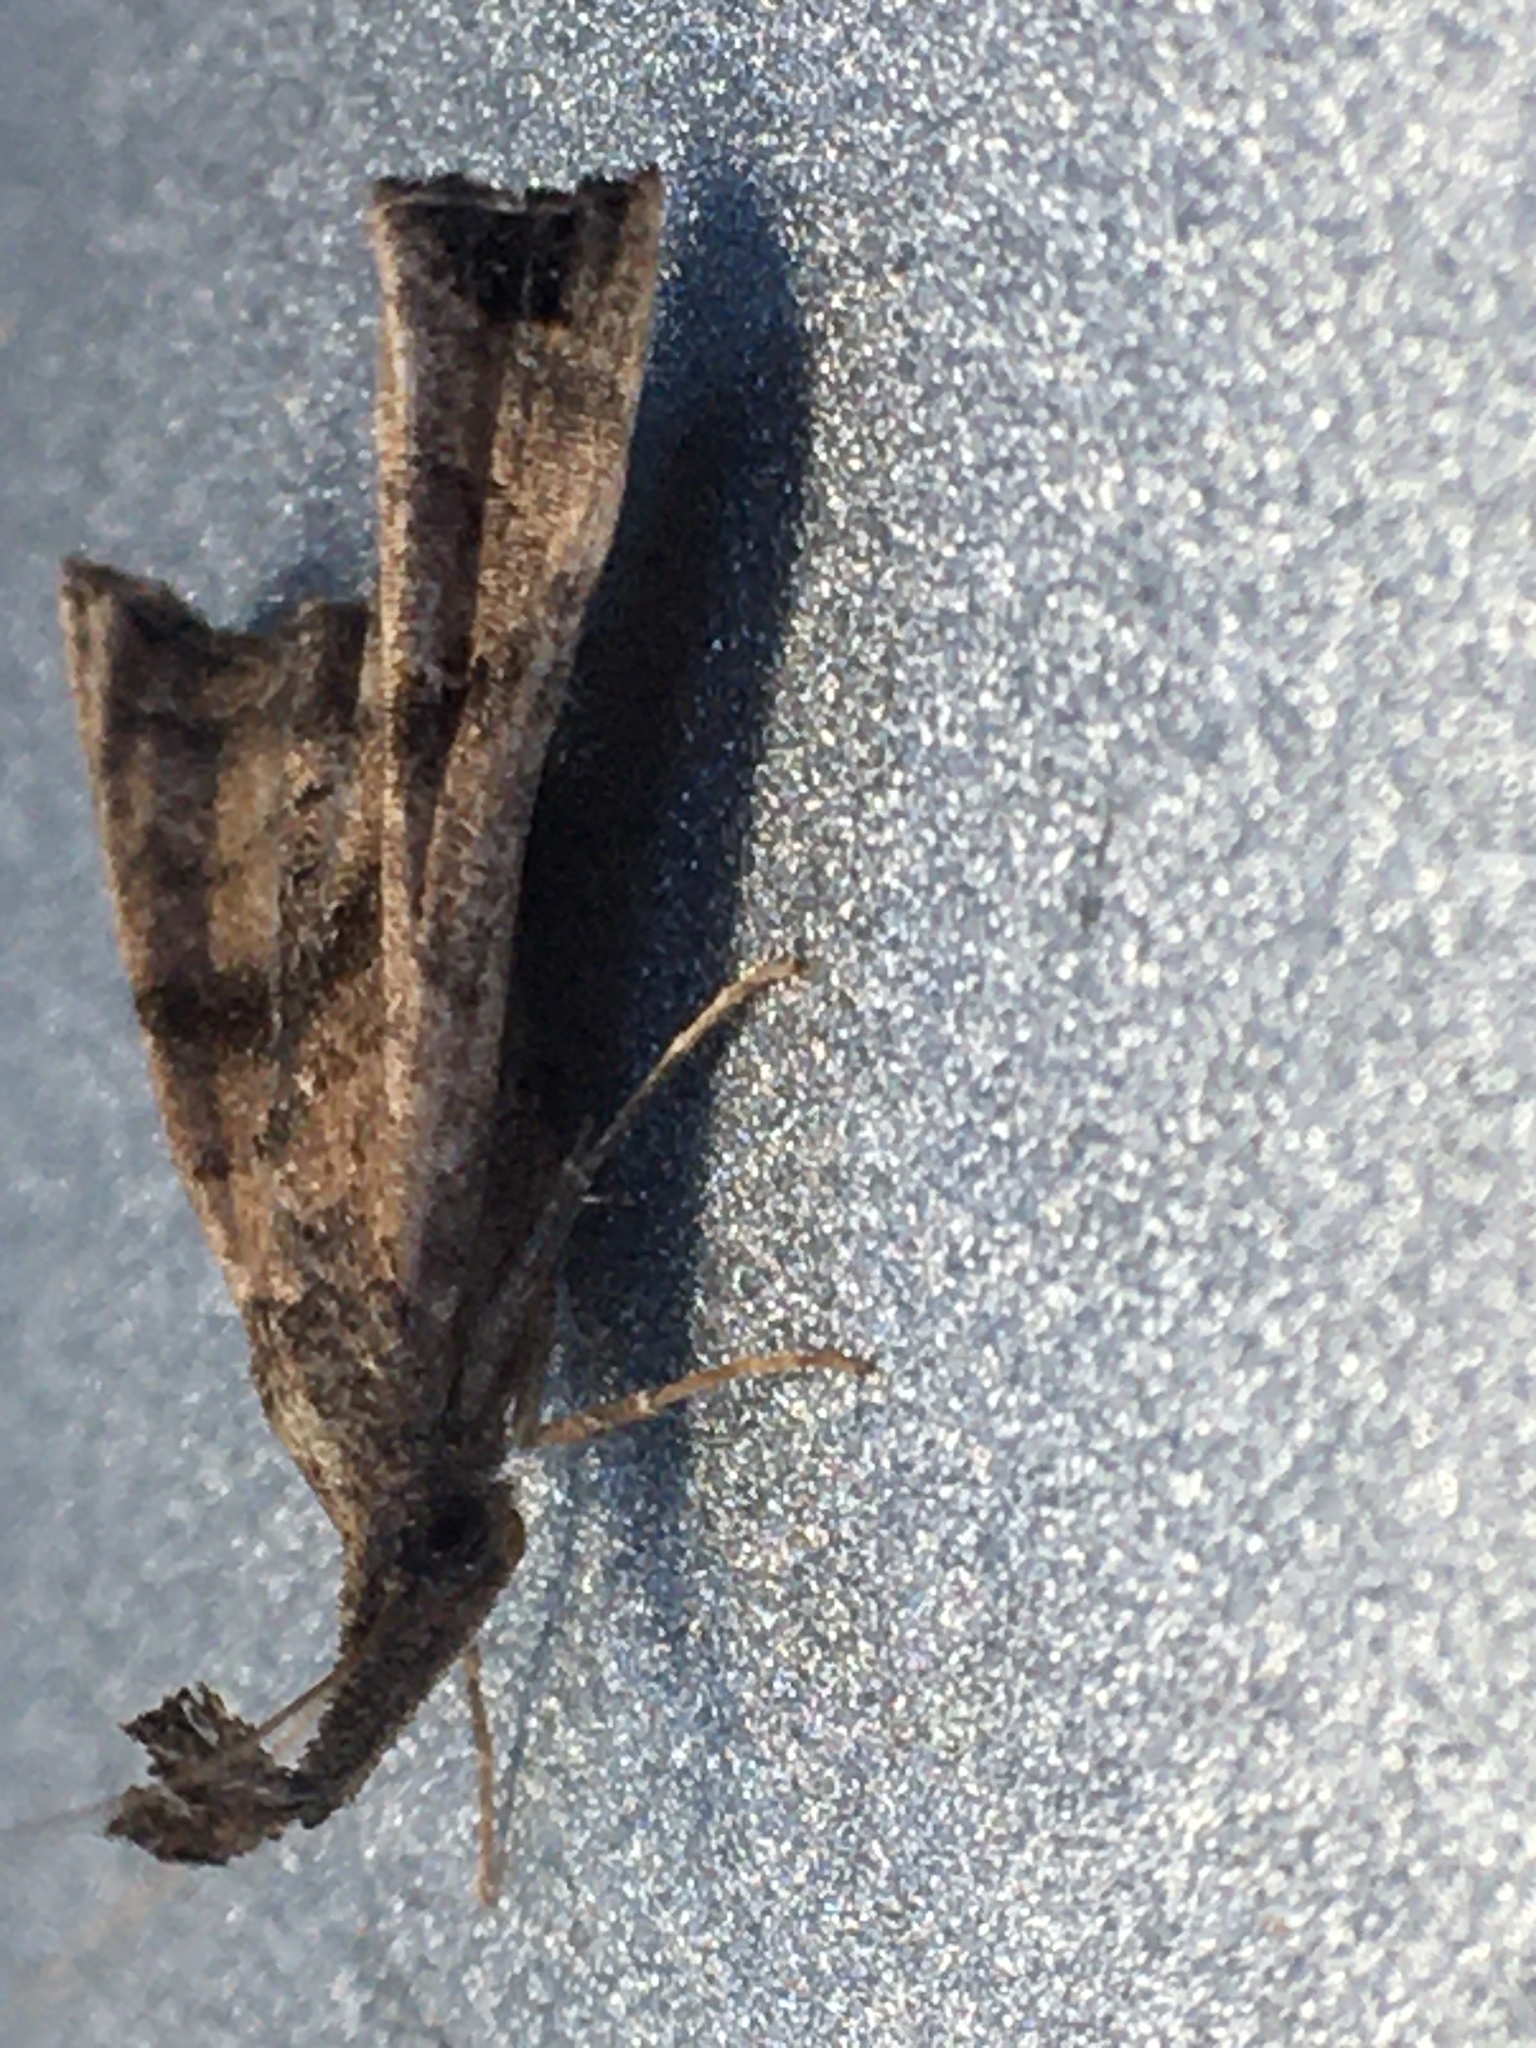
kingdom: Animalia
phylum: Arthropoda
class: Insecta
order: Lepidoptera
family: Erebidae
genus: Palthis
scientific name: Palthis asopialis
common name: Faint-spotted palthis moth
